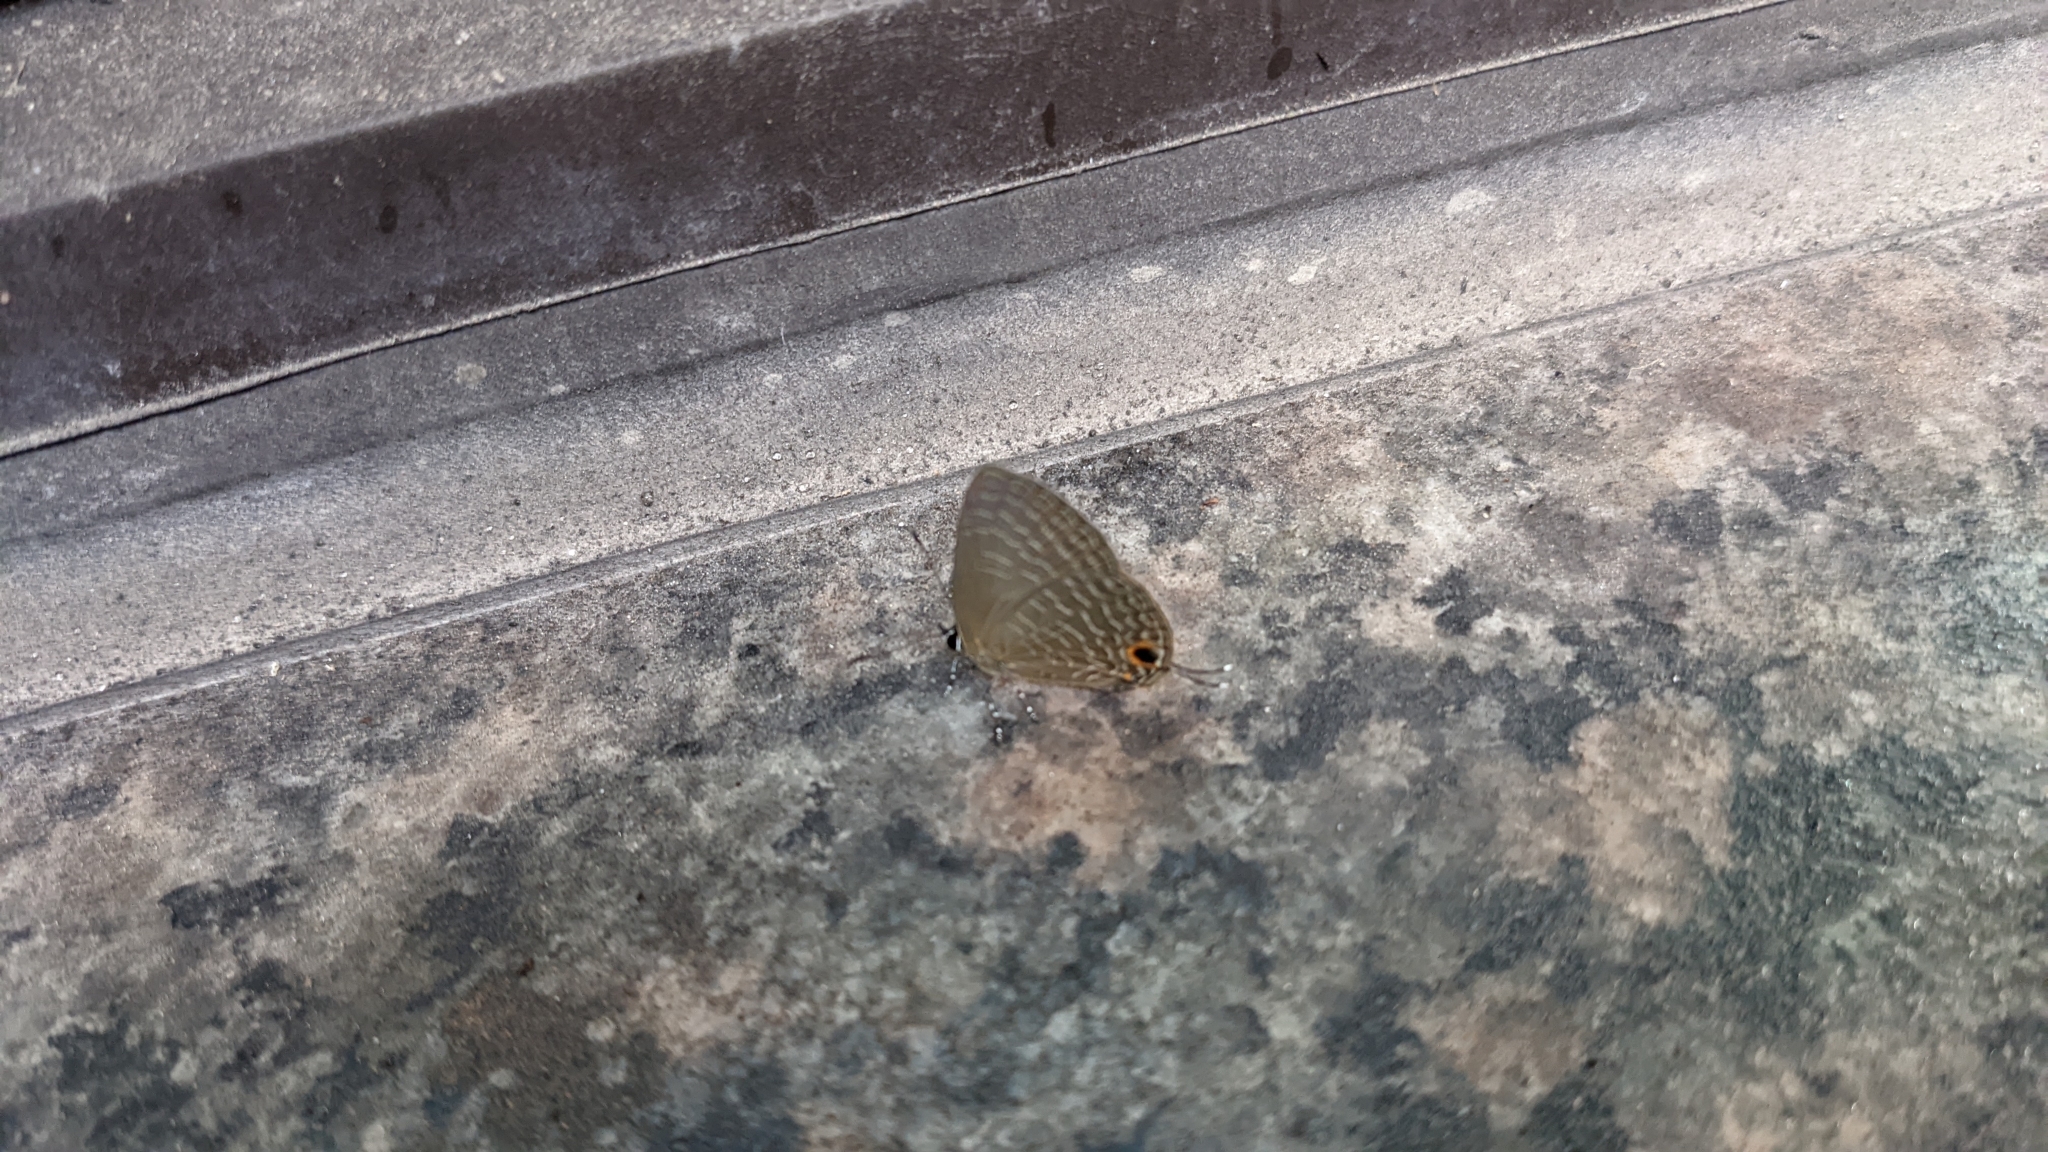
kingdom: Animalia
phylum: Arthropoda
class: Insecta
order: Lepidoptera
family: Lycaenidae
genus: Jamides
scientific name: Jamides bochus
